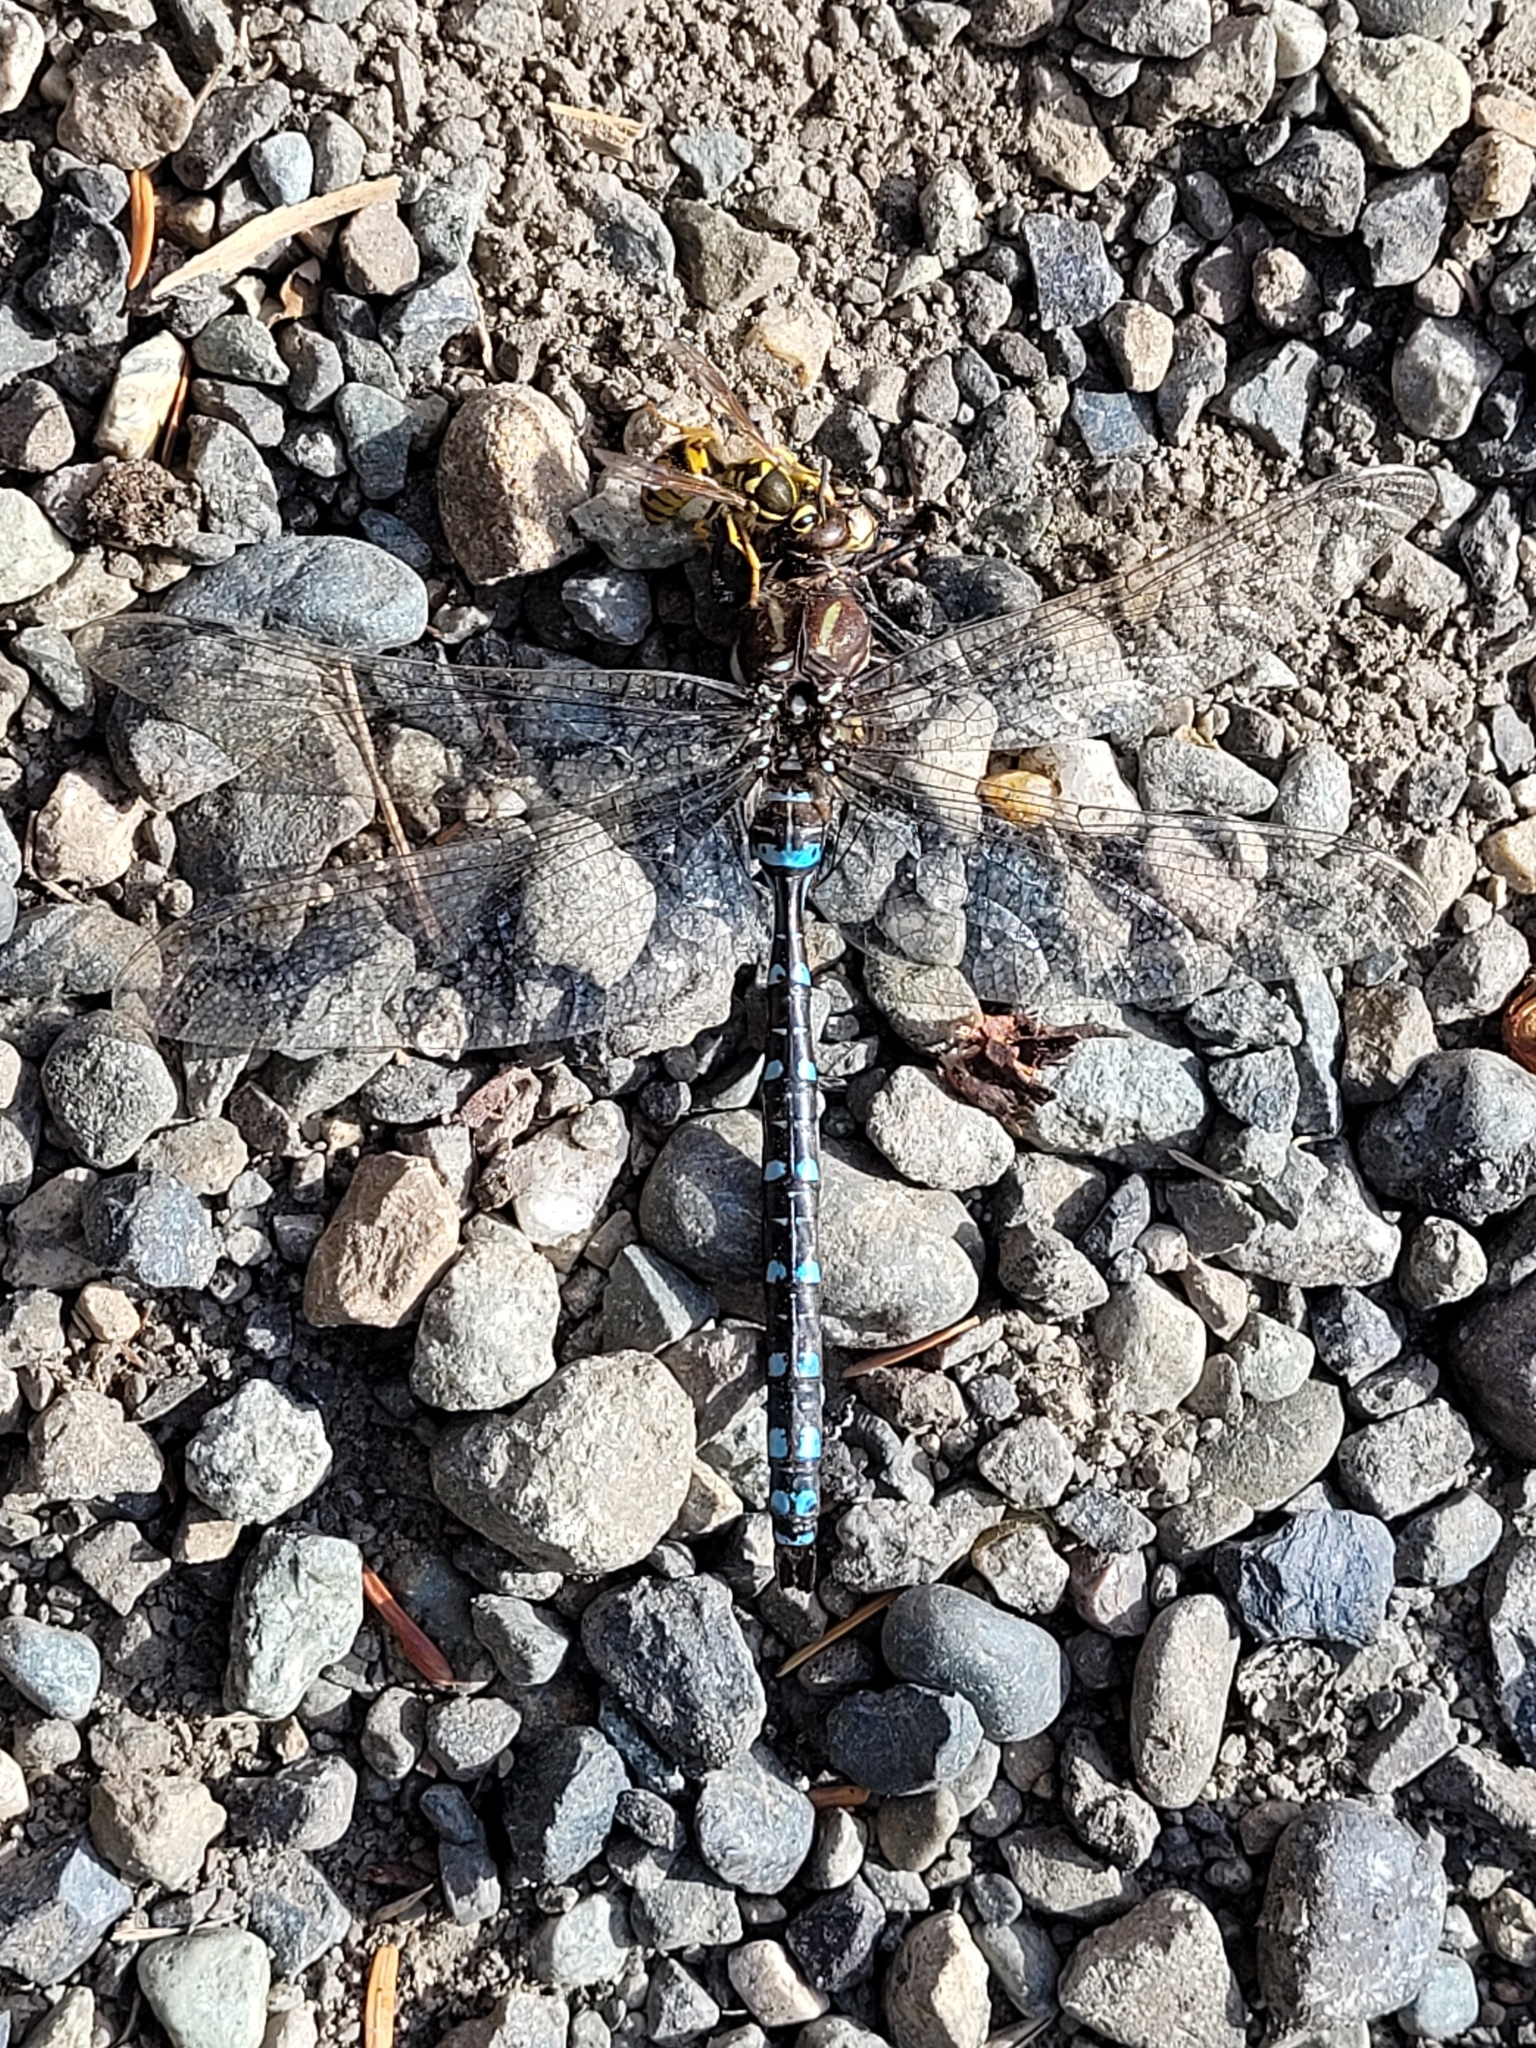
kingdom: Animalia
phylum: Arthropoda
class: Insecta
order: Odonata
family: Aeshnidae
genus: Aeshna
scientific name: Aeshna palmata
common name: Paddle-tailed darner
